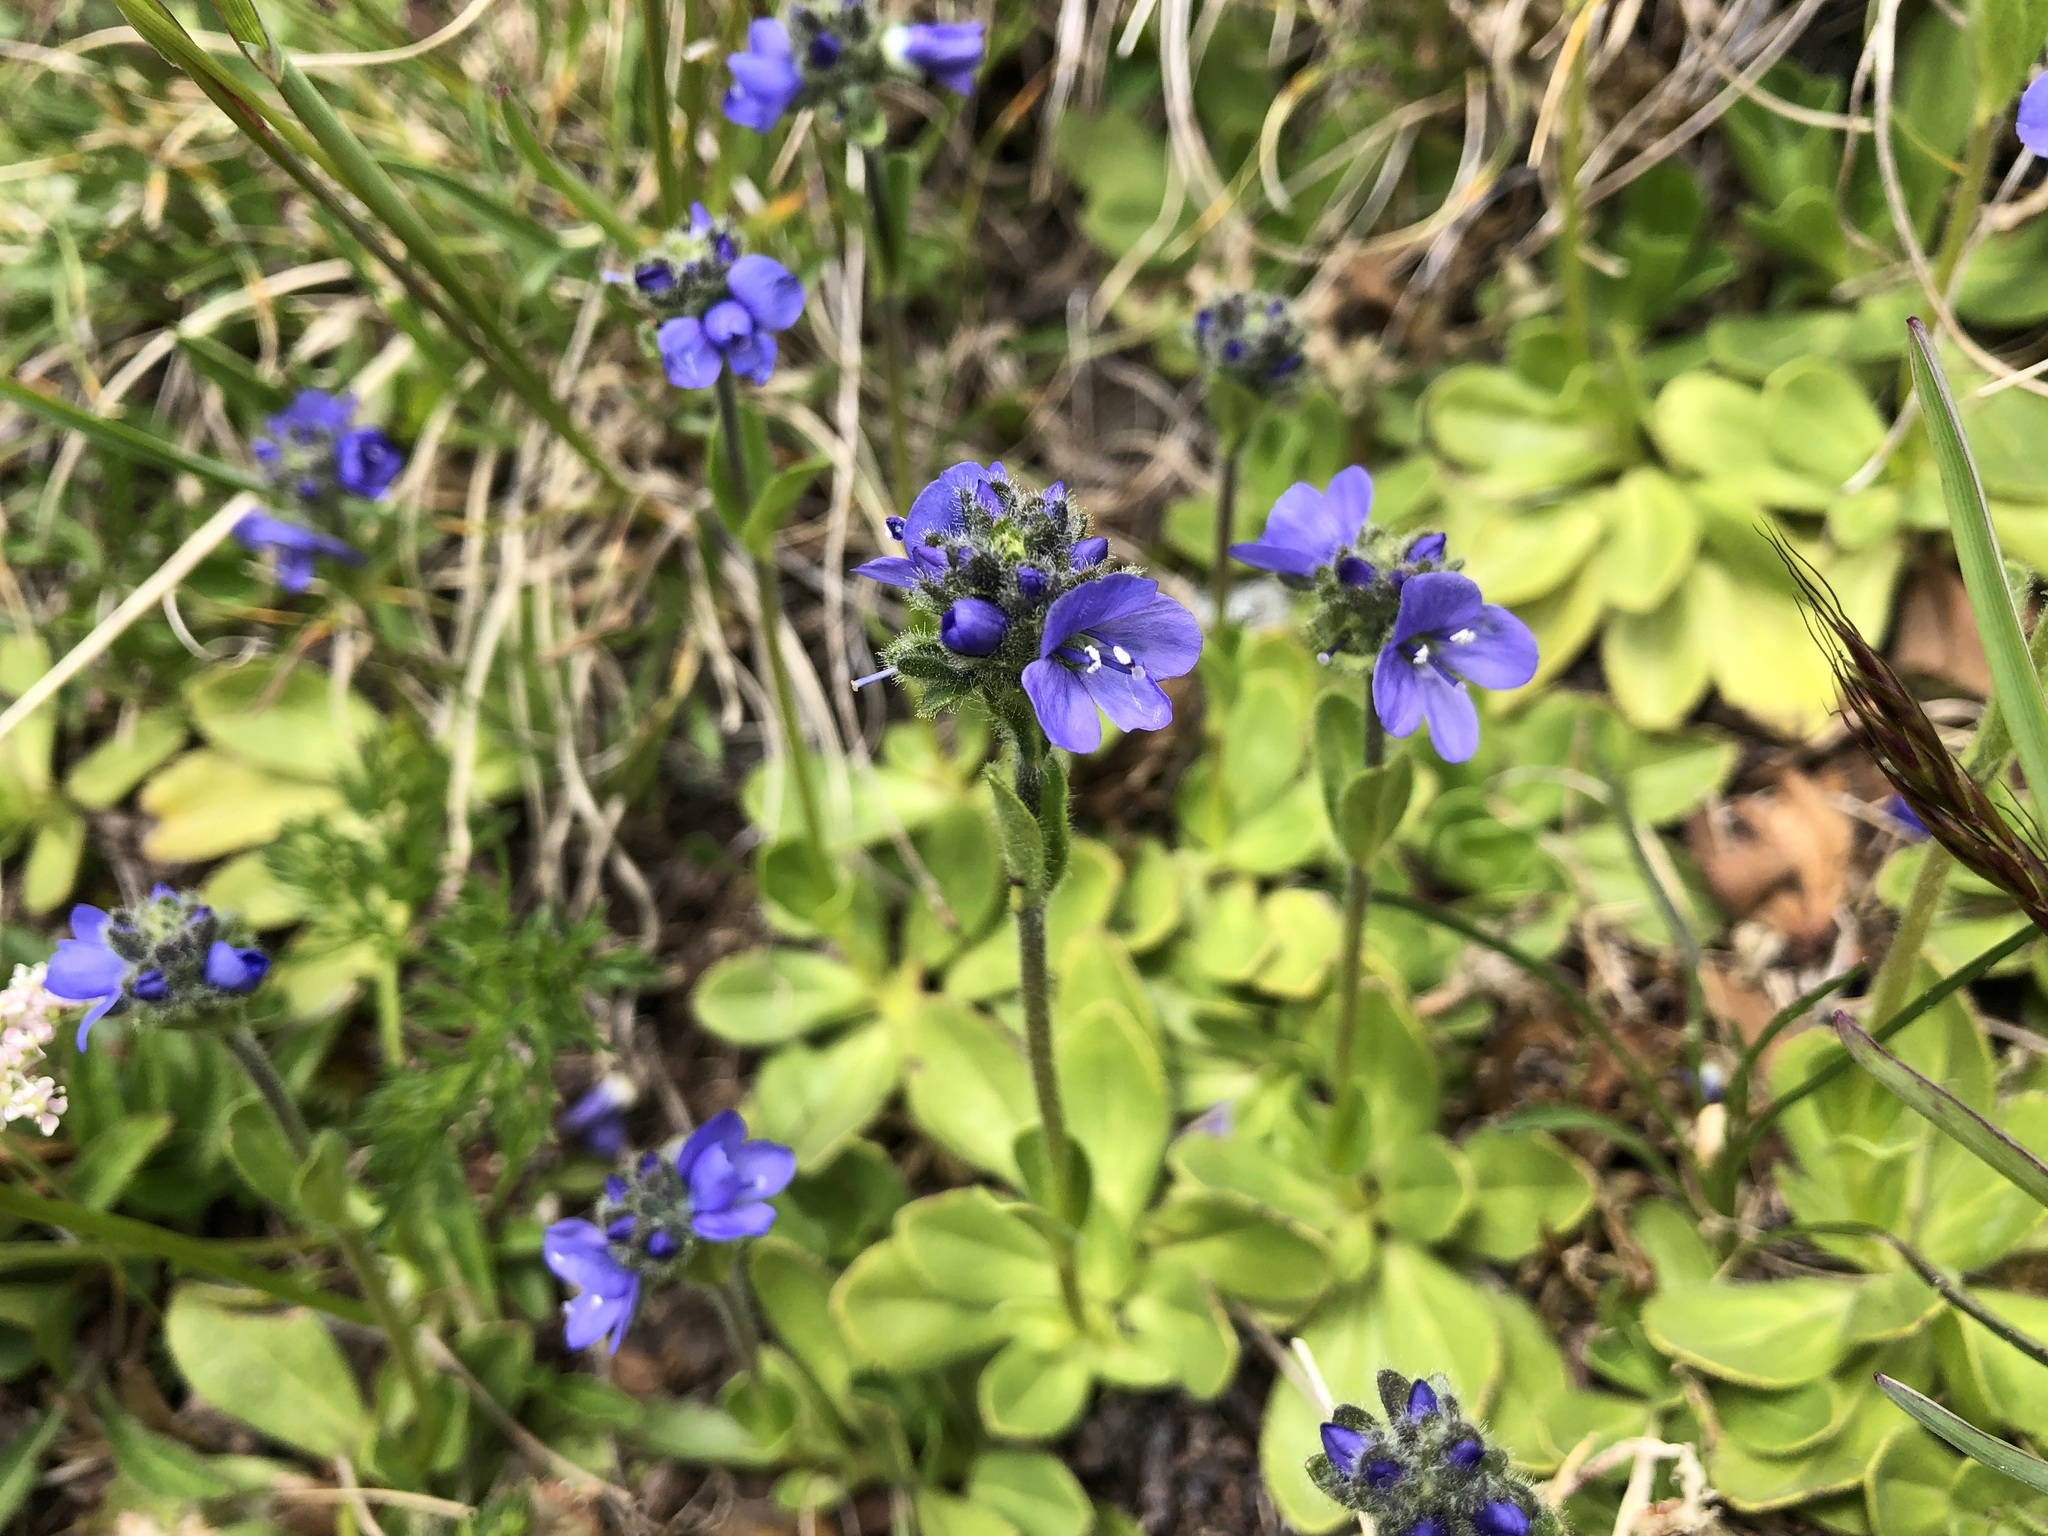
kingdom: Plantae
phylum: Tracheophyta
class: Magnoliopsida
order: Lamiales
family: Plantaginaceae
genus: Veronica
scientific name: Veronica bellidioides
